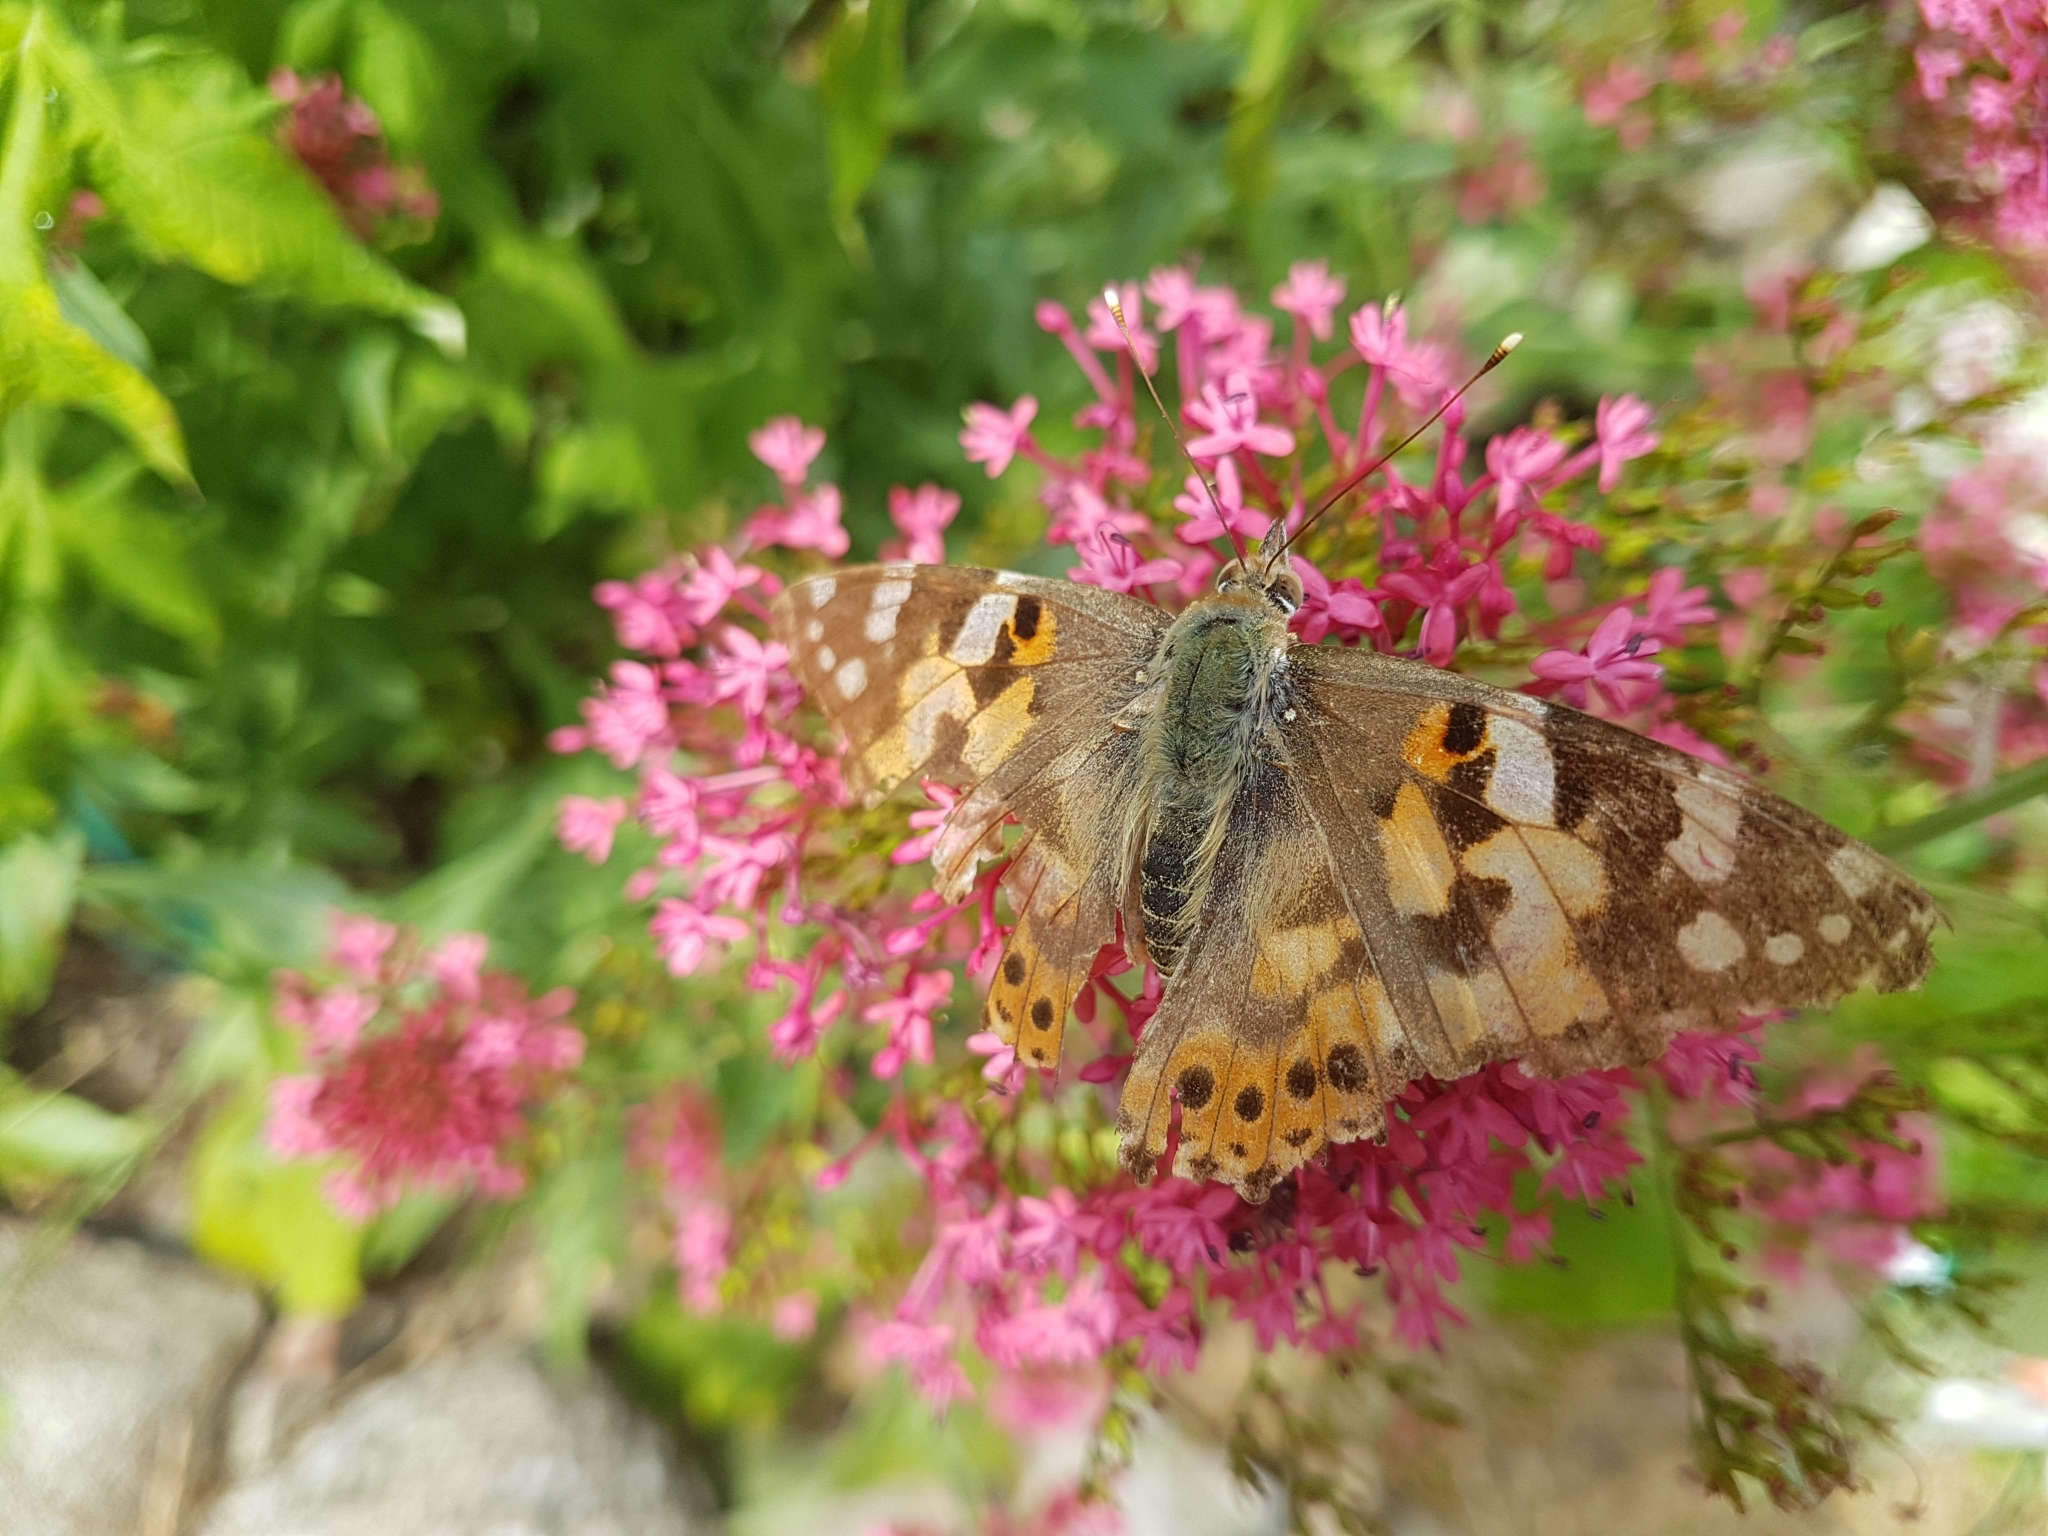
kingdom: Animalia
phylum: Arthropoda
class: Insecta
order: Lepidoptera
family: Nymphalidae
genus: Vanessa
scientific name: Vanessa cardui
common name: Painted lady
